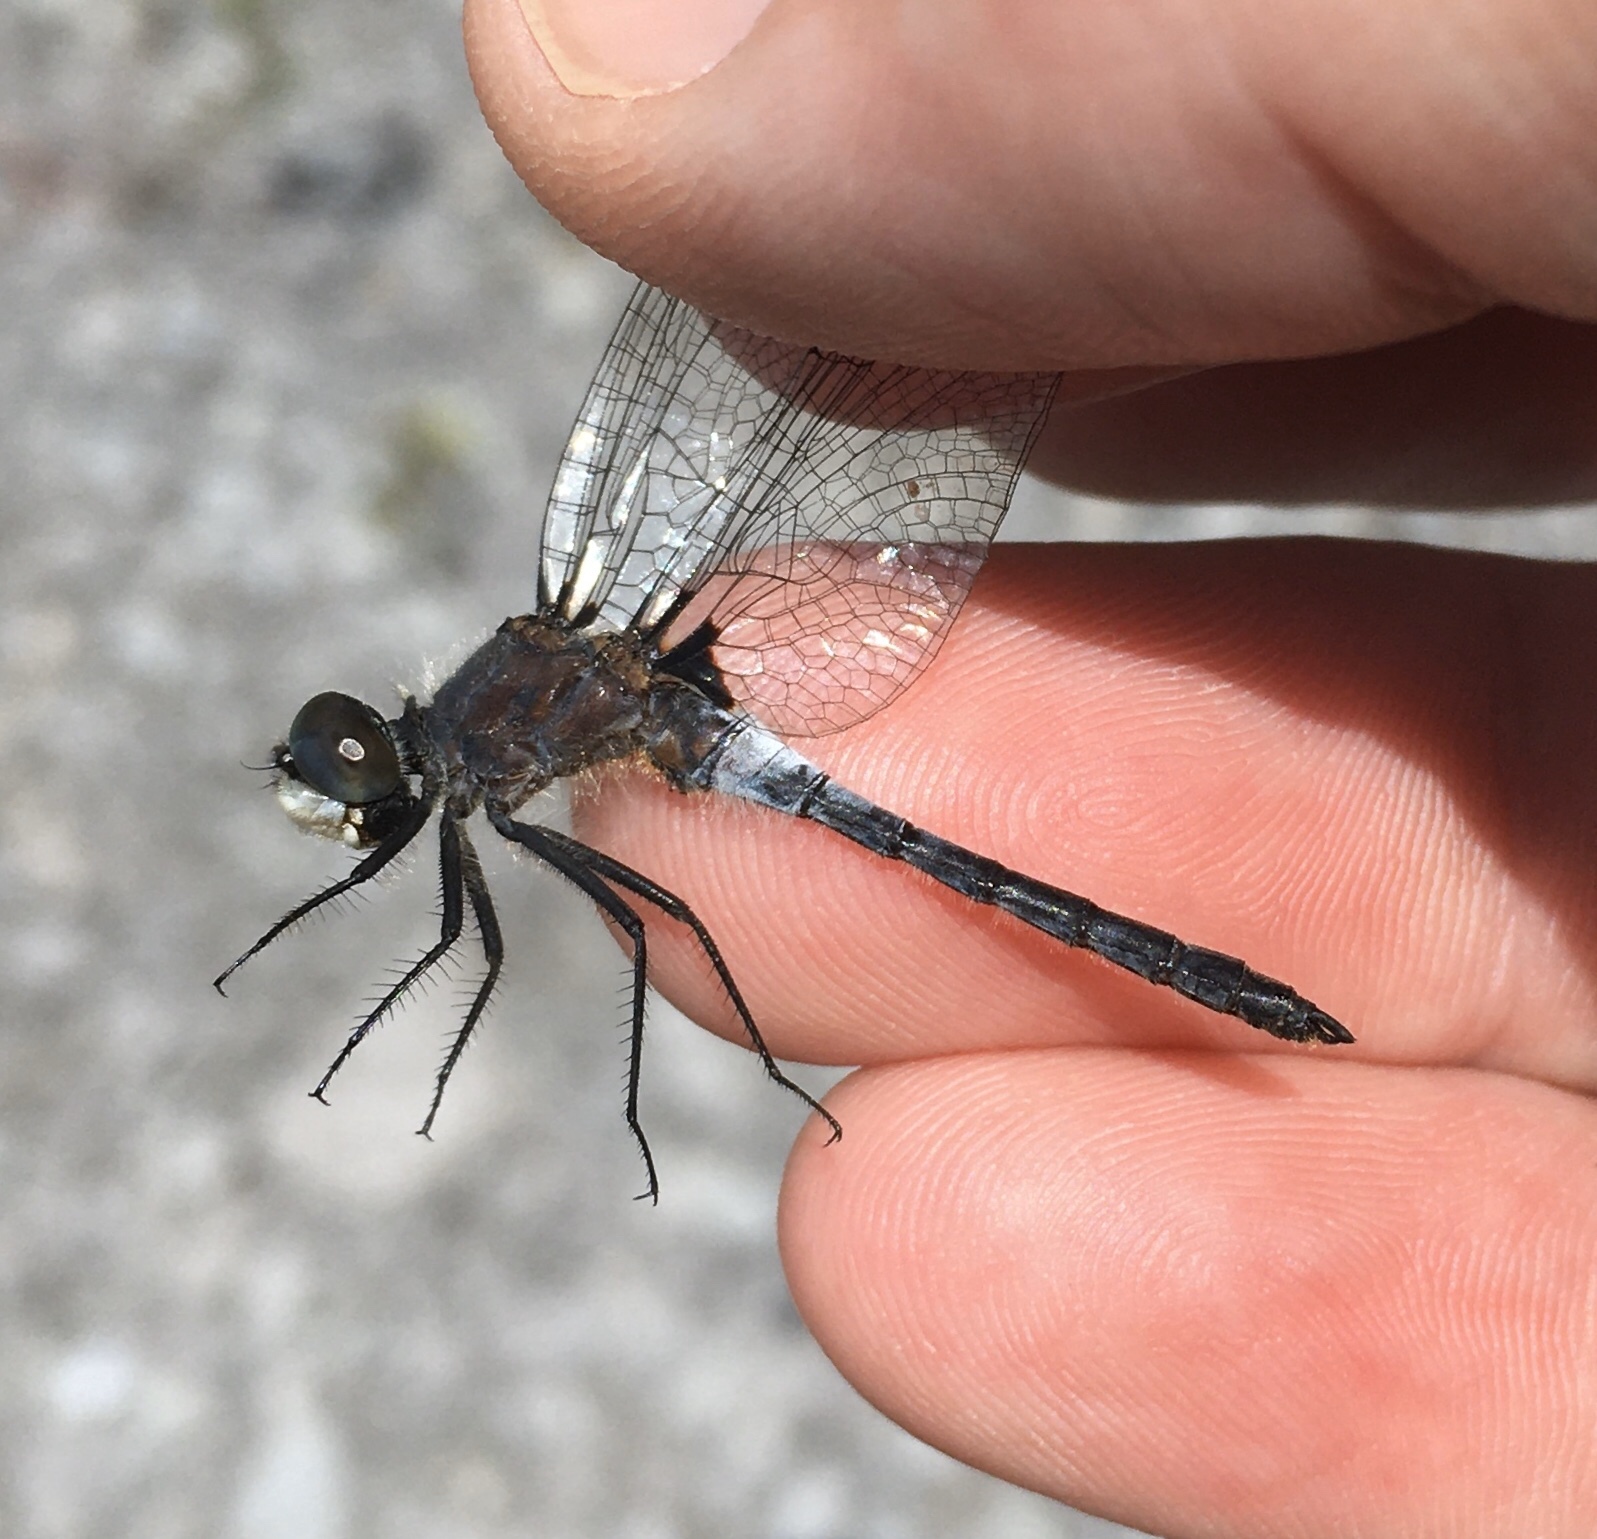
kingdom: Animalia
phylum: Arthropoda
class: Insecta
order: Odonata
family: Libellulidae
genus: Leucorrhinia
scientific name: Leucorrhinia frigida
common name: Frosted whiteface
